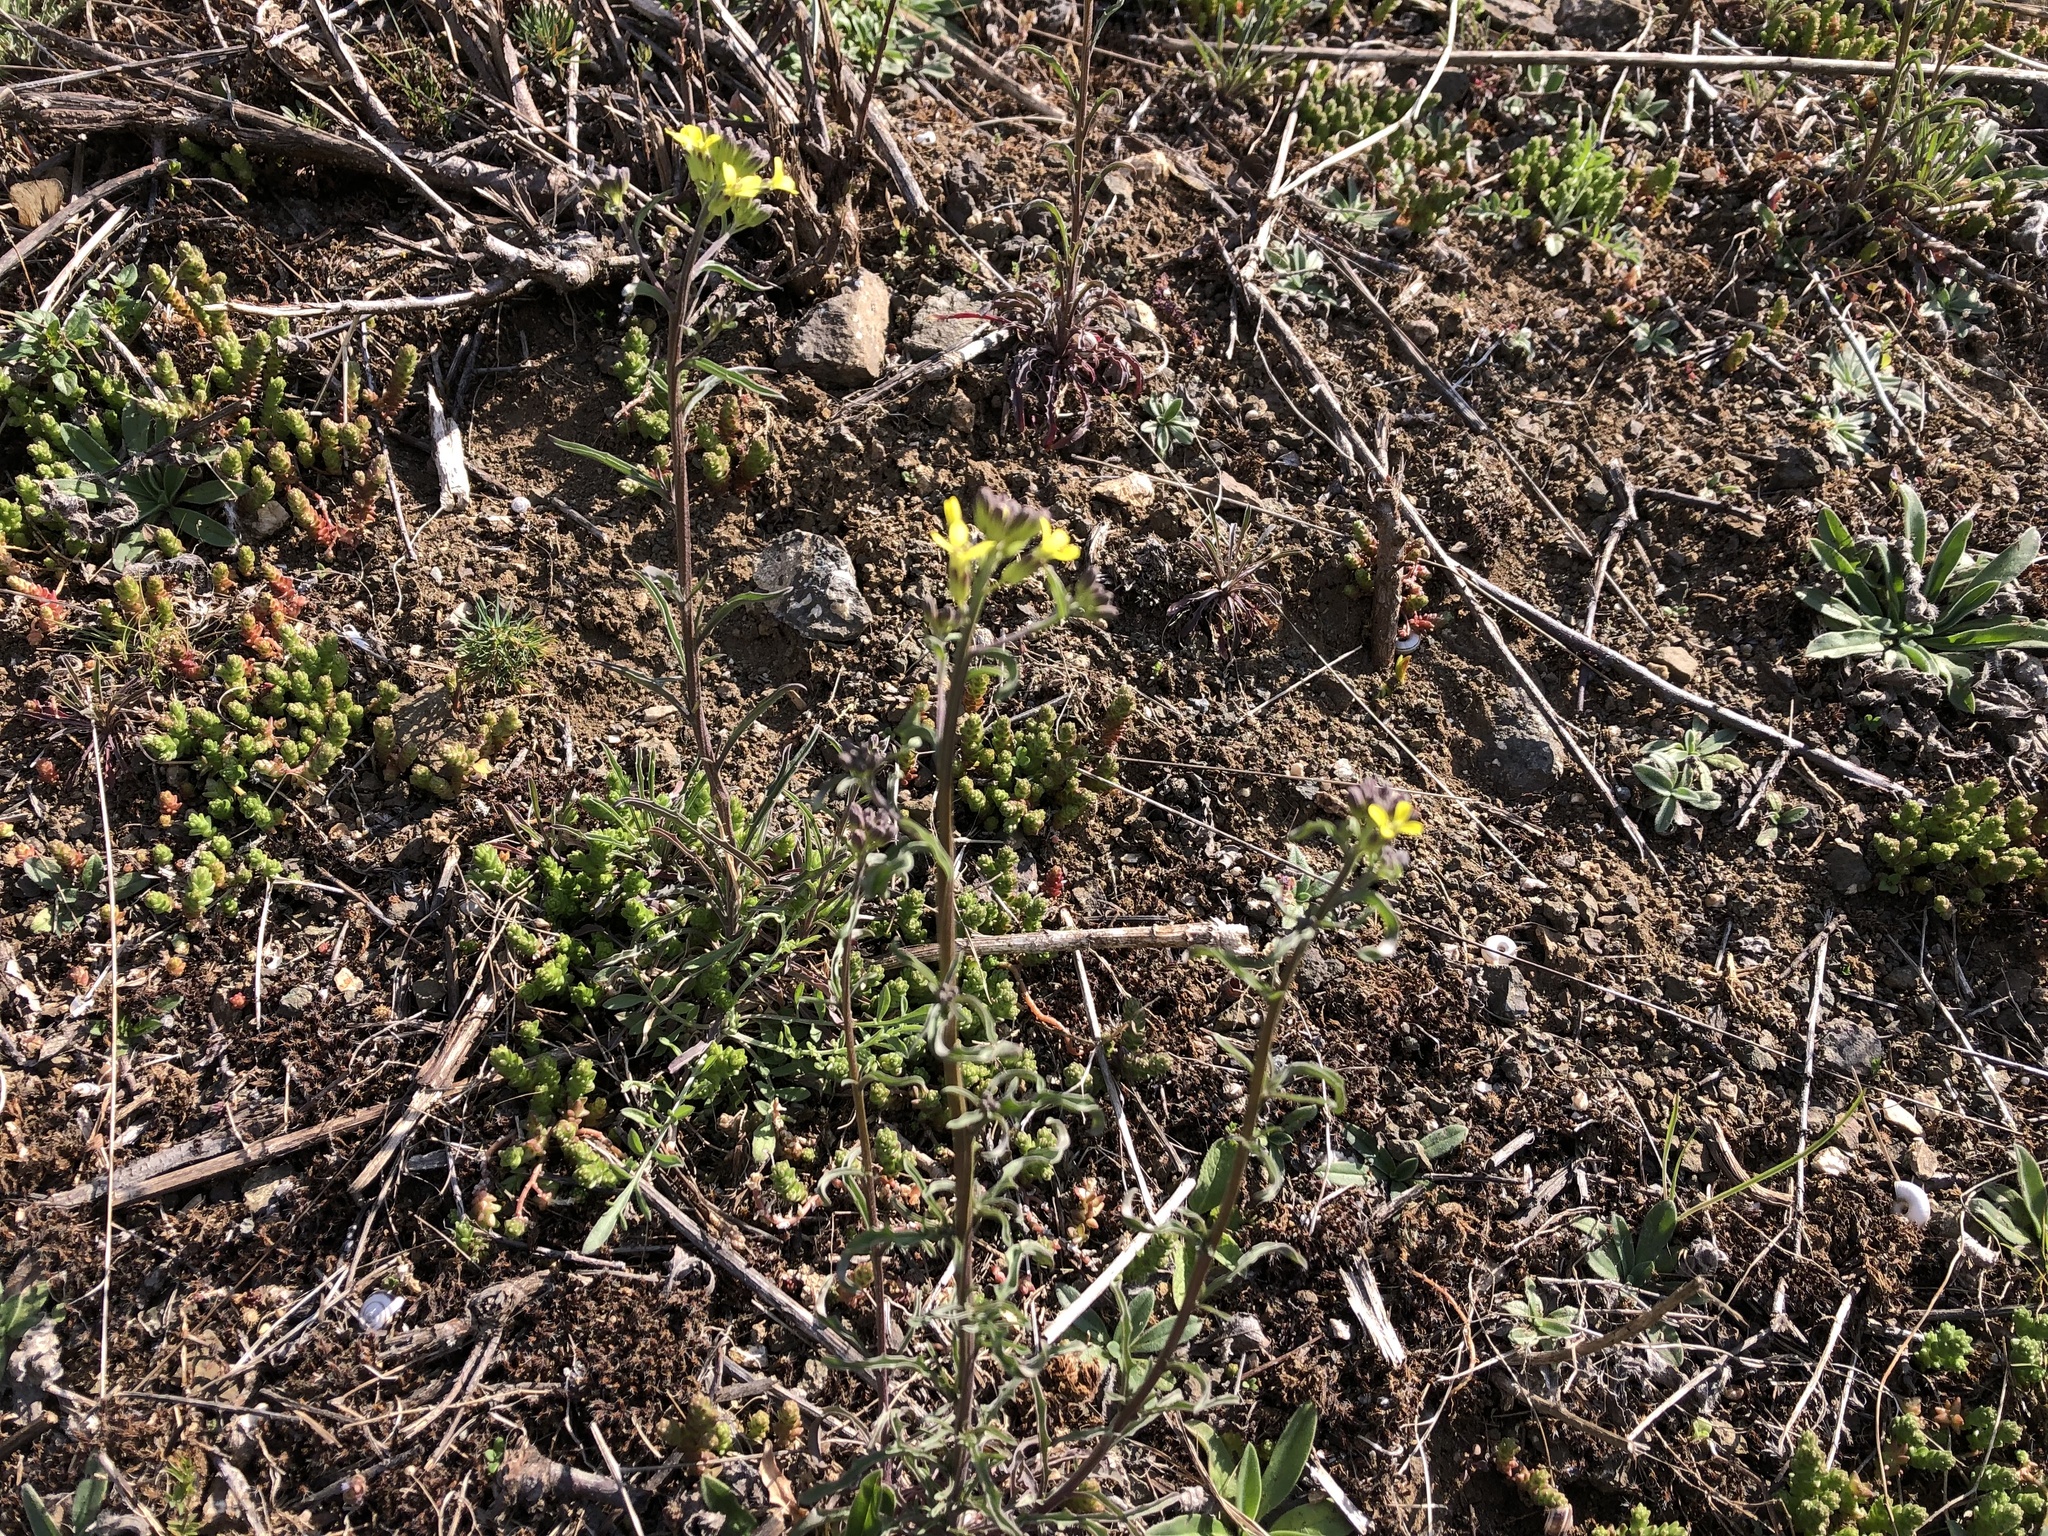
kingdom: Plantae
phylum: Tracheophyta
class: Magnoliopsida
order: Brassicales
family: Brassicaceae
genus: Erysimum
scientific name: Erysimum crepidifolium
